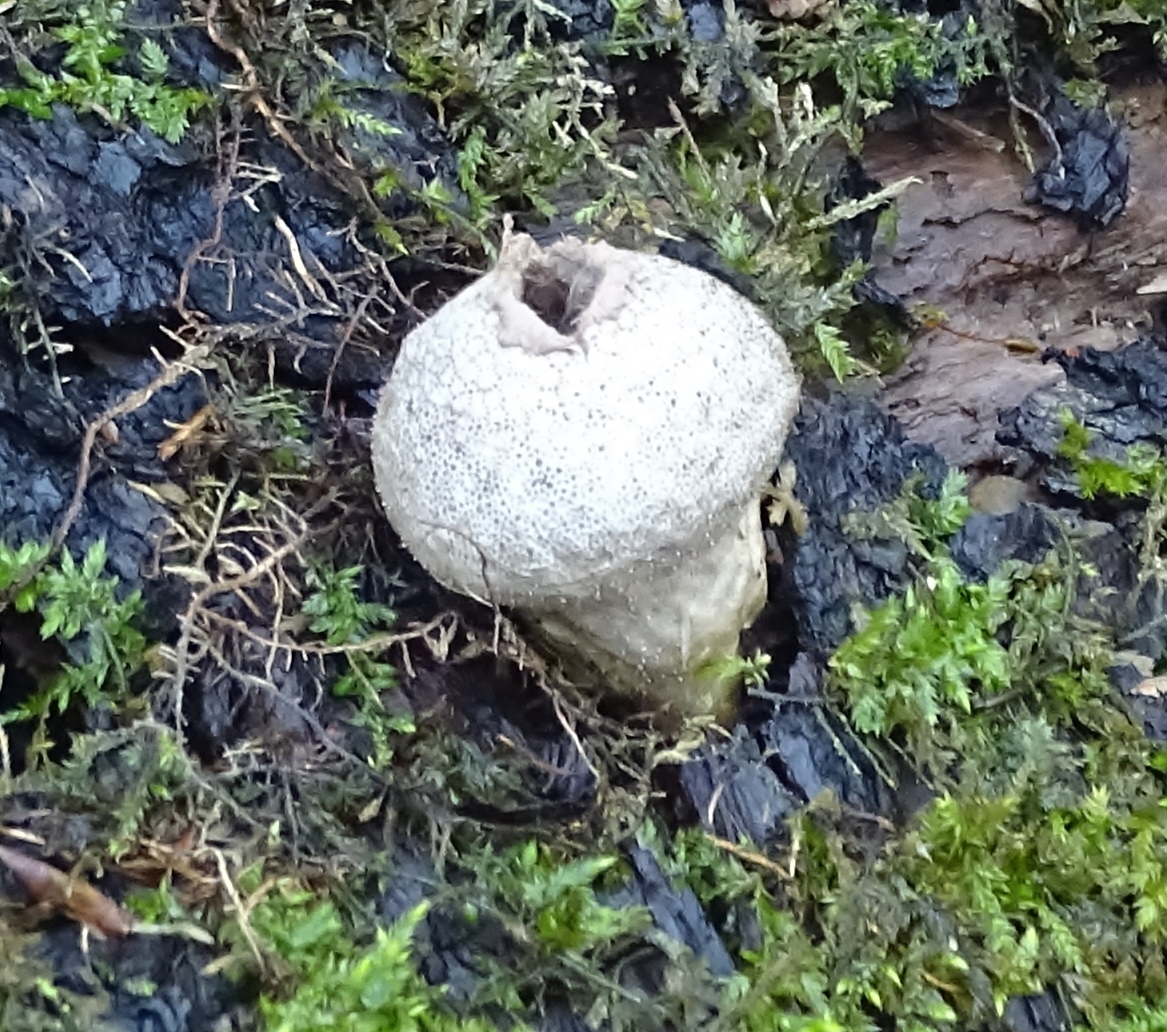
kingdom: Fungi
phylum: Basidiomycota
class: Agaricomycetes
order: Agaricales
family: Lycoperdaceae
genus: Apioperdon
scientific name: Apioperdon pyriforme
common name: Pear-shaped puffball
